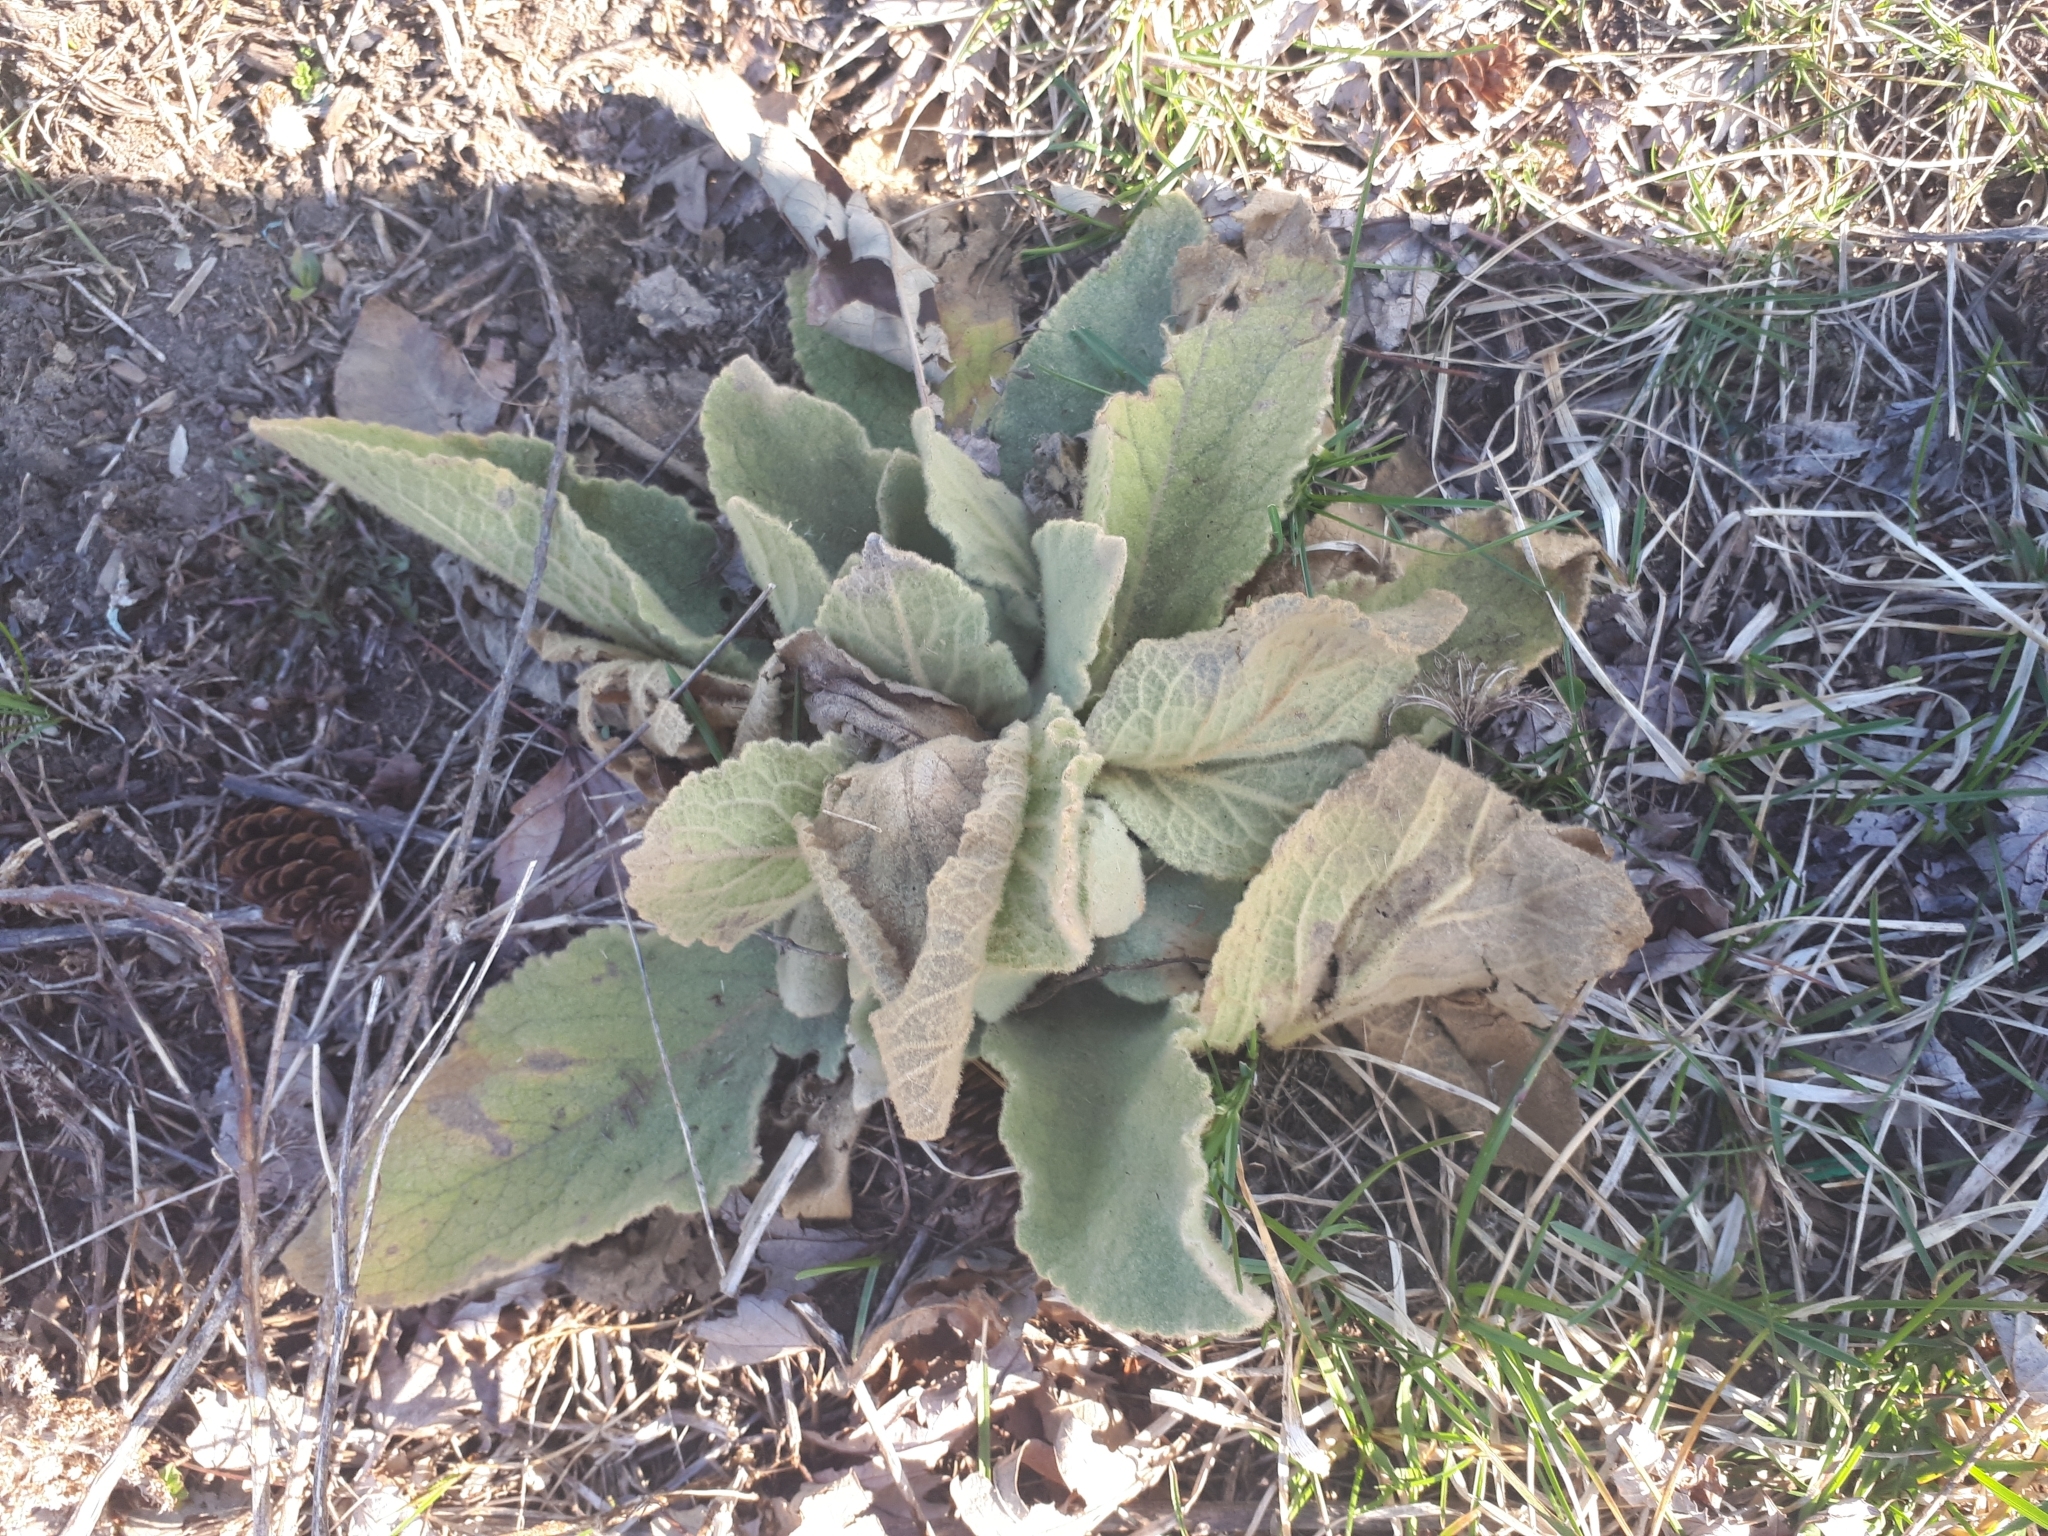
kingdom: Plantae
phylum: Tracheophyta
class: Magnoliopsida
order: Lamiales
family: Scrophulariaceae
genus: Verbascum
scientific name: Verbascum thapsus
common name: Common mullein
